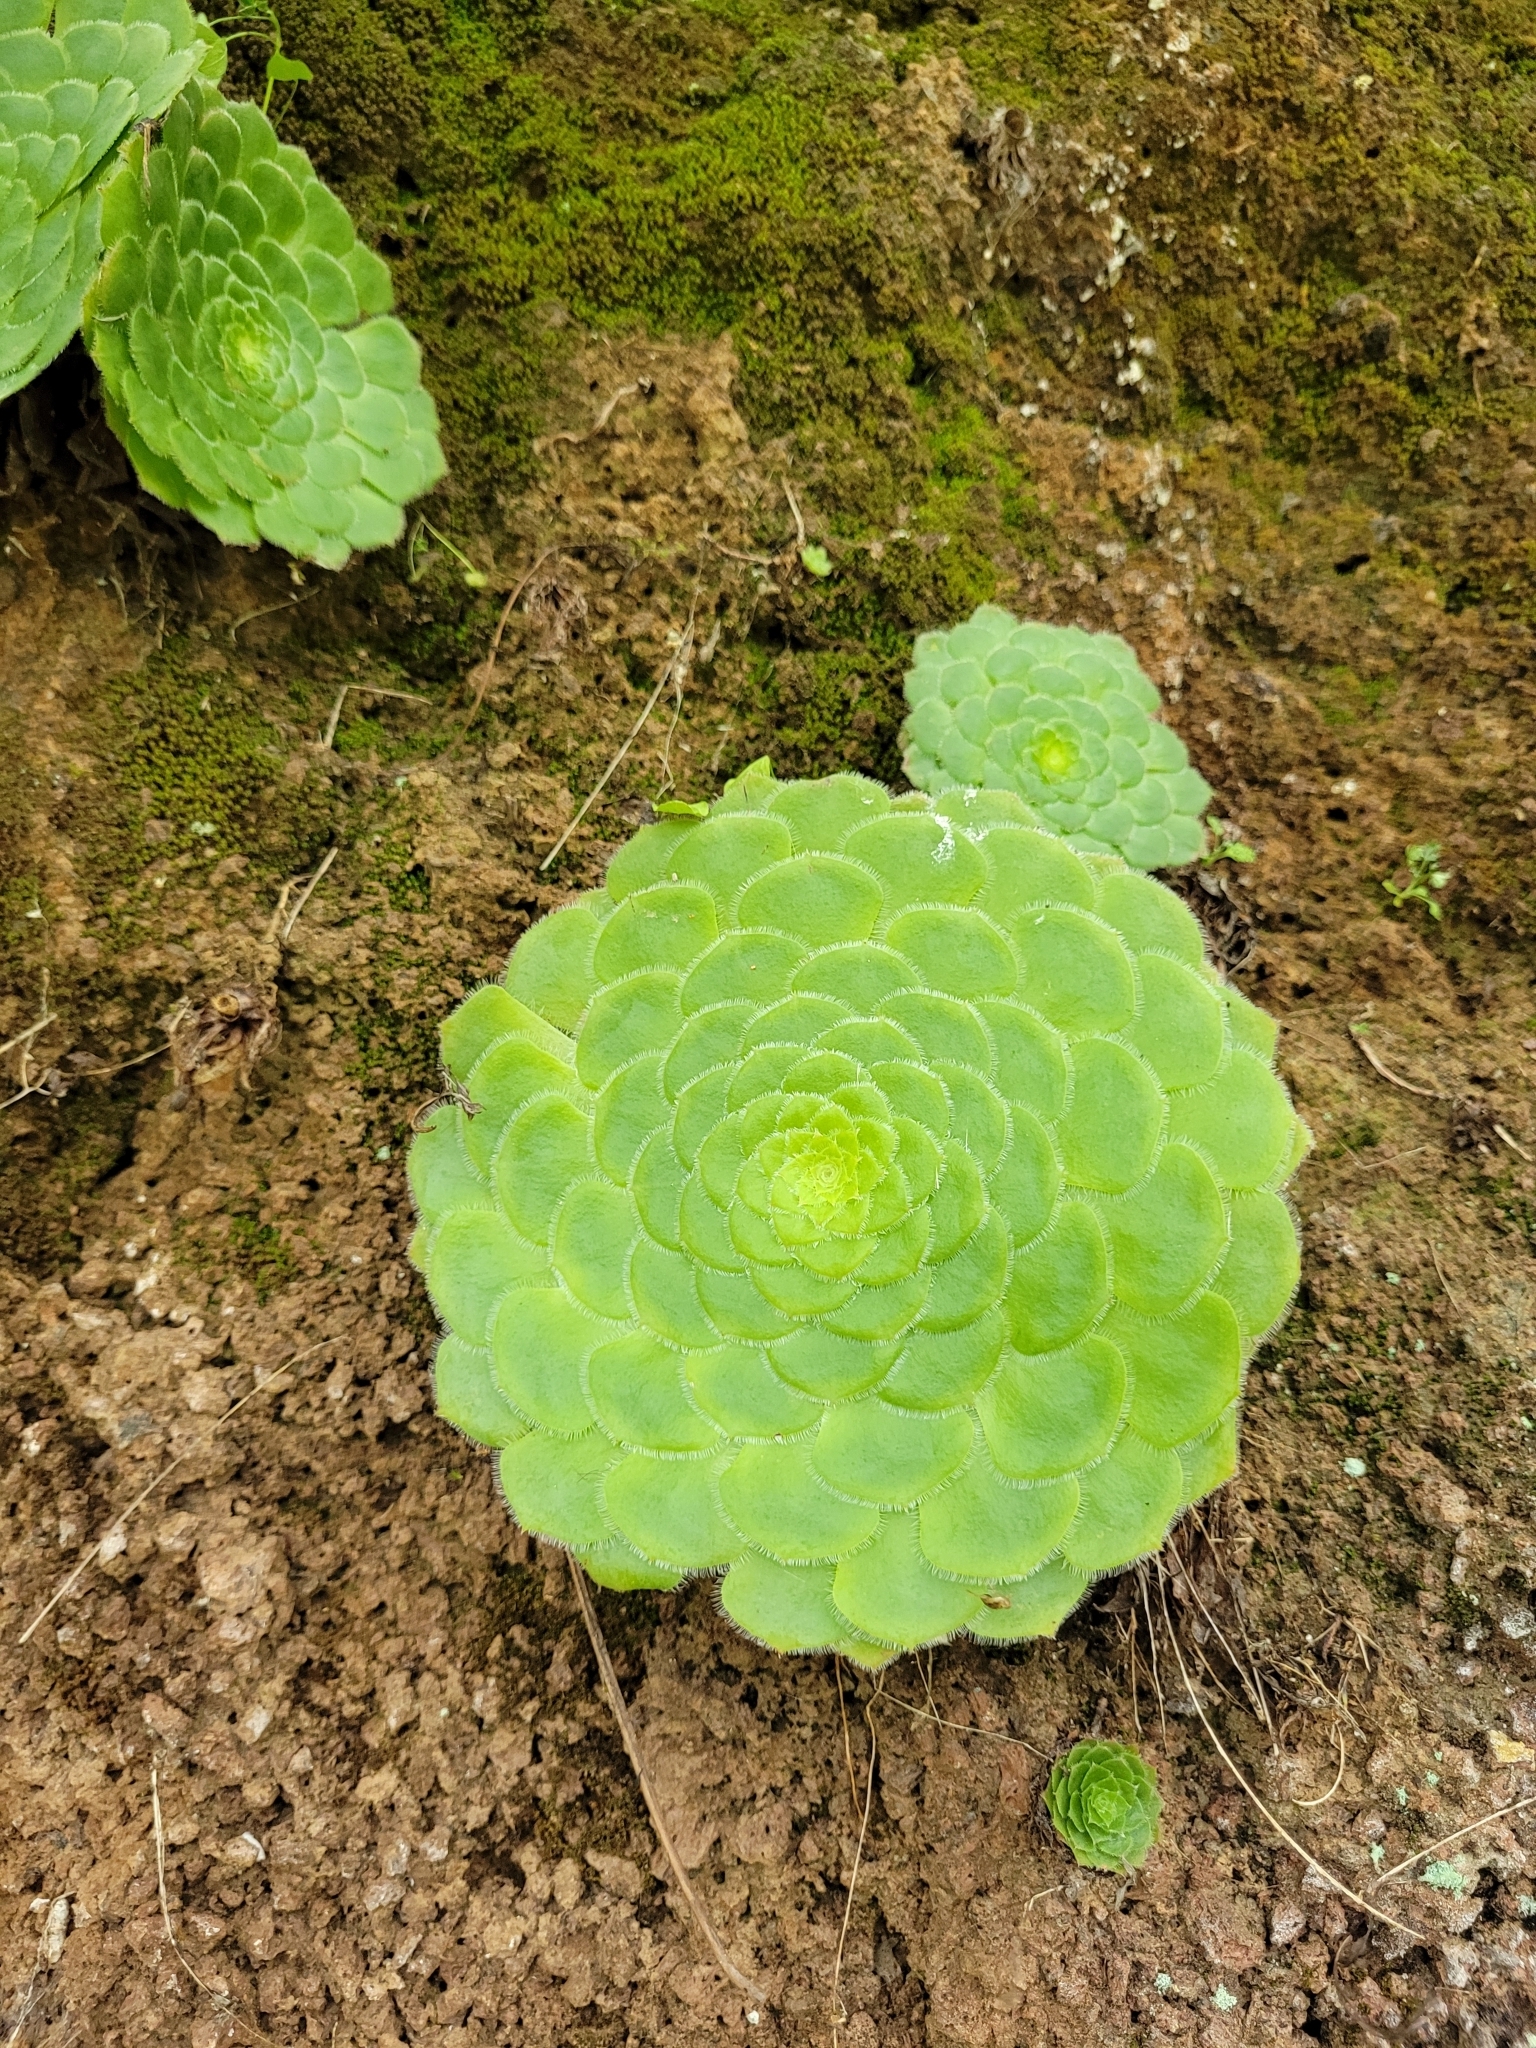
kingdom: Plantae
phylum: Tracheophyta
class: Magnoliopsida
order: Saxifragales
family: Crassulaceae
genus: Aeonium
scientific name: Aeonium tabulaeforme
